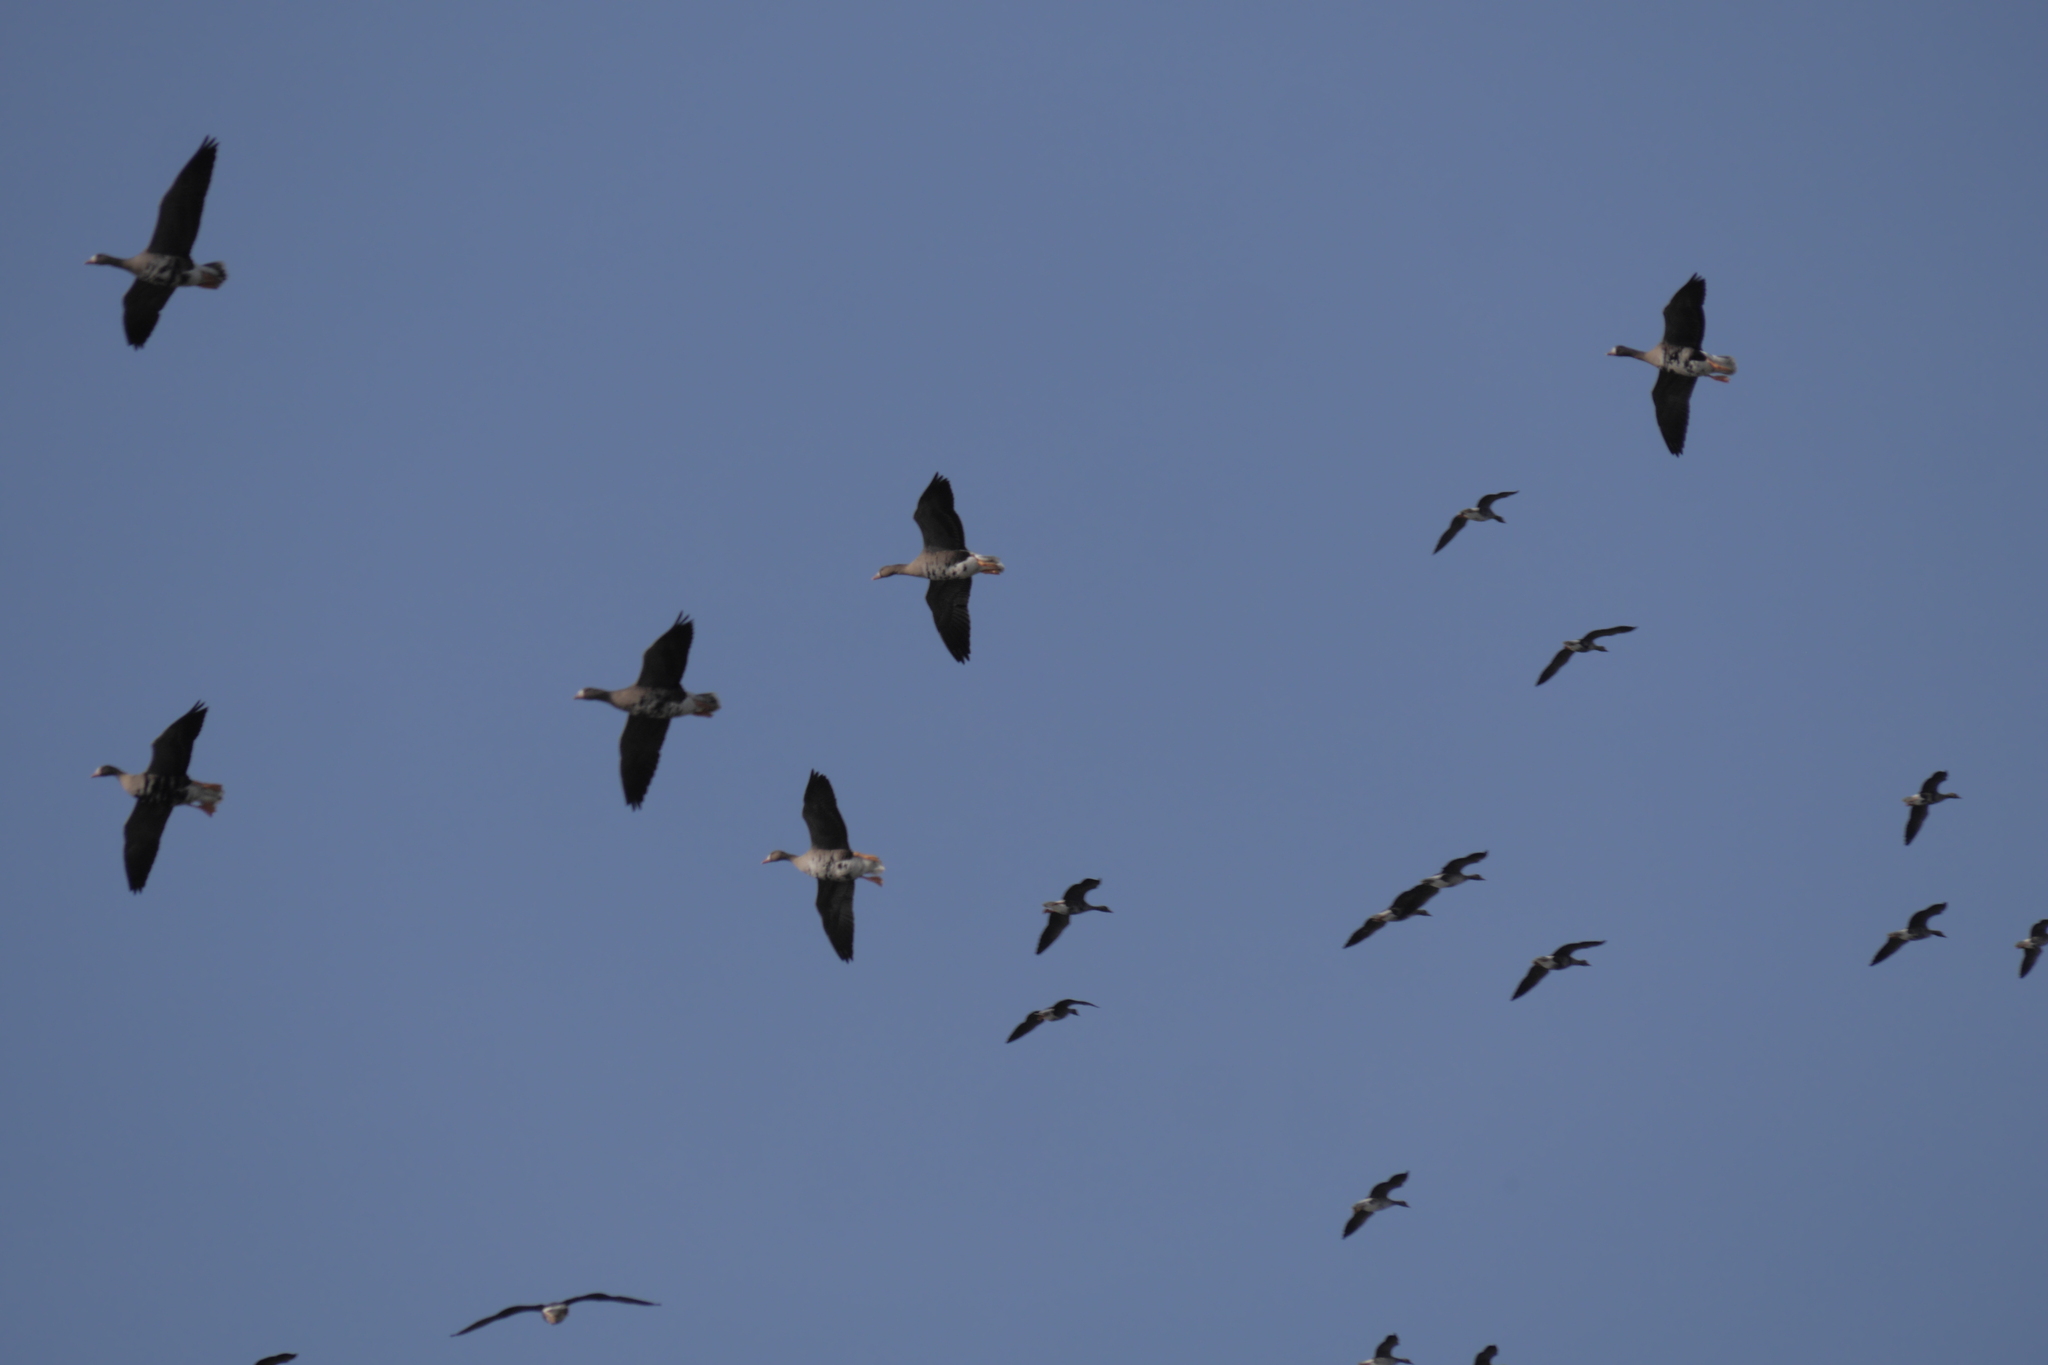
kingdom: Animalia
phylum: Chordata
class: Aves
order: Anseriformes
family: Anatidae
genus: Anser
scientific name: Anser albifrons
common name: Greater white-fronted goose
